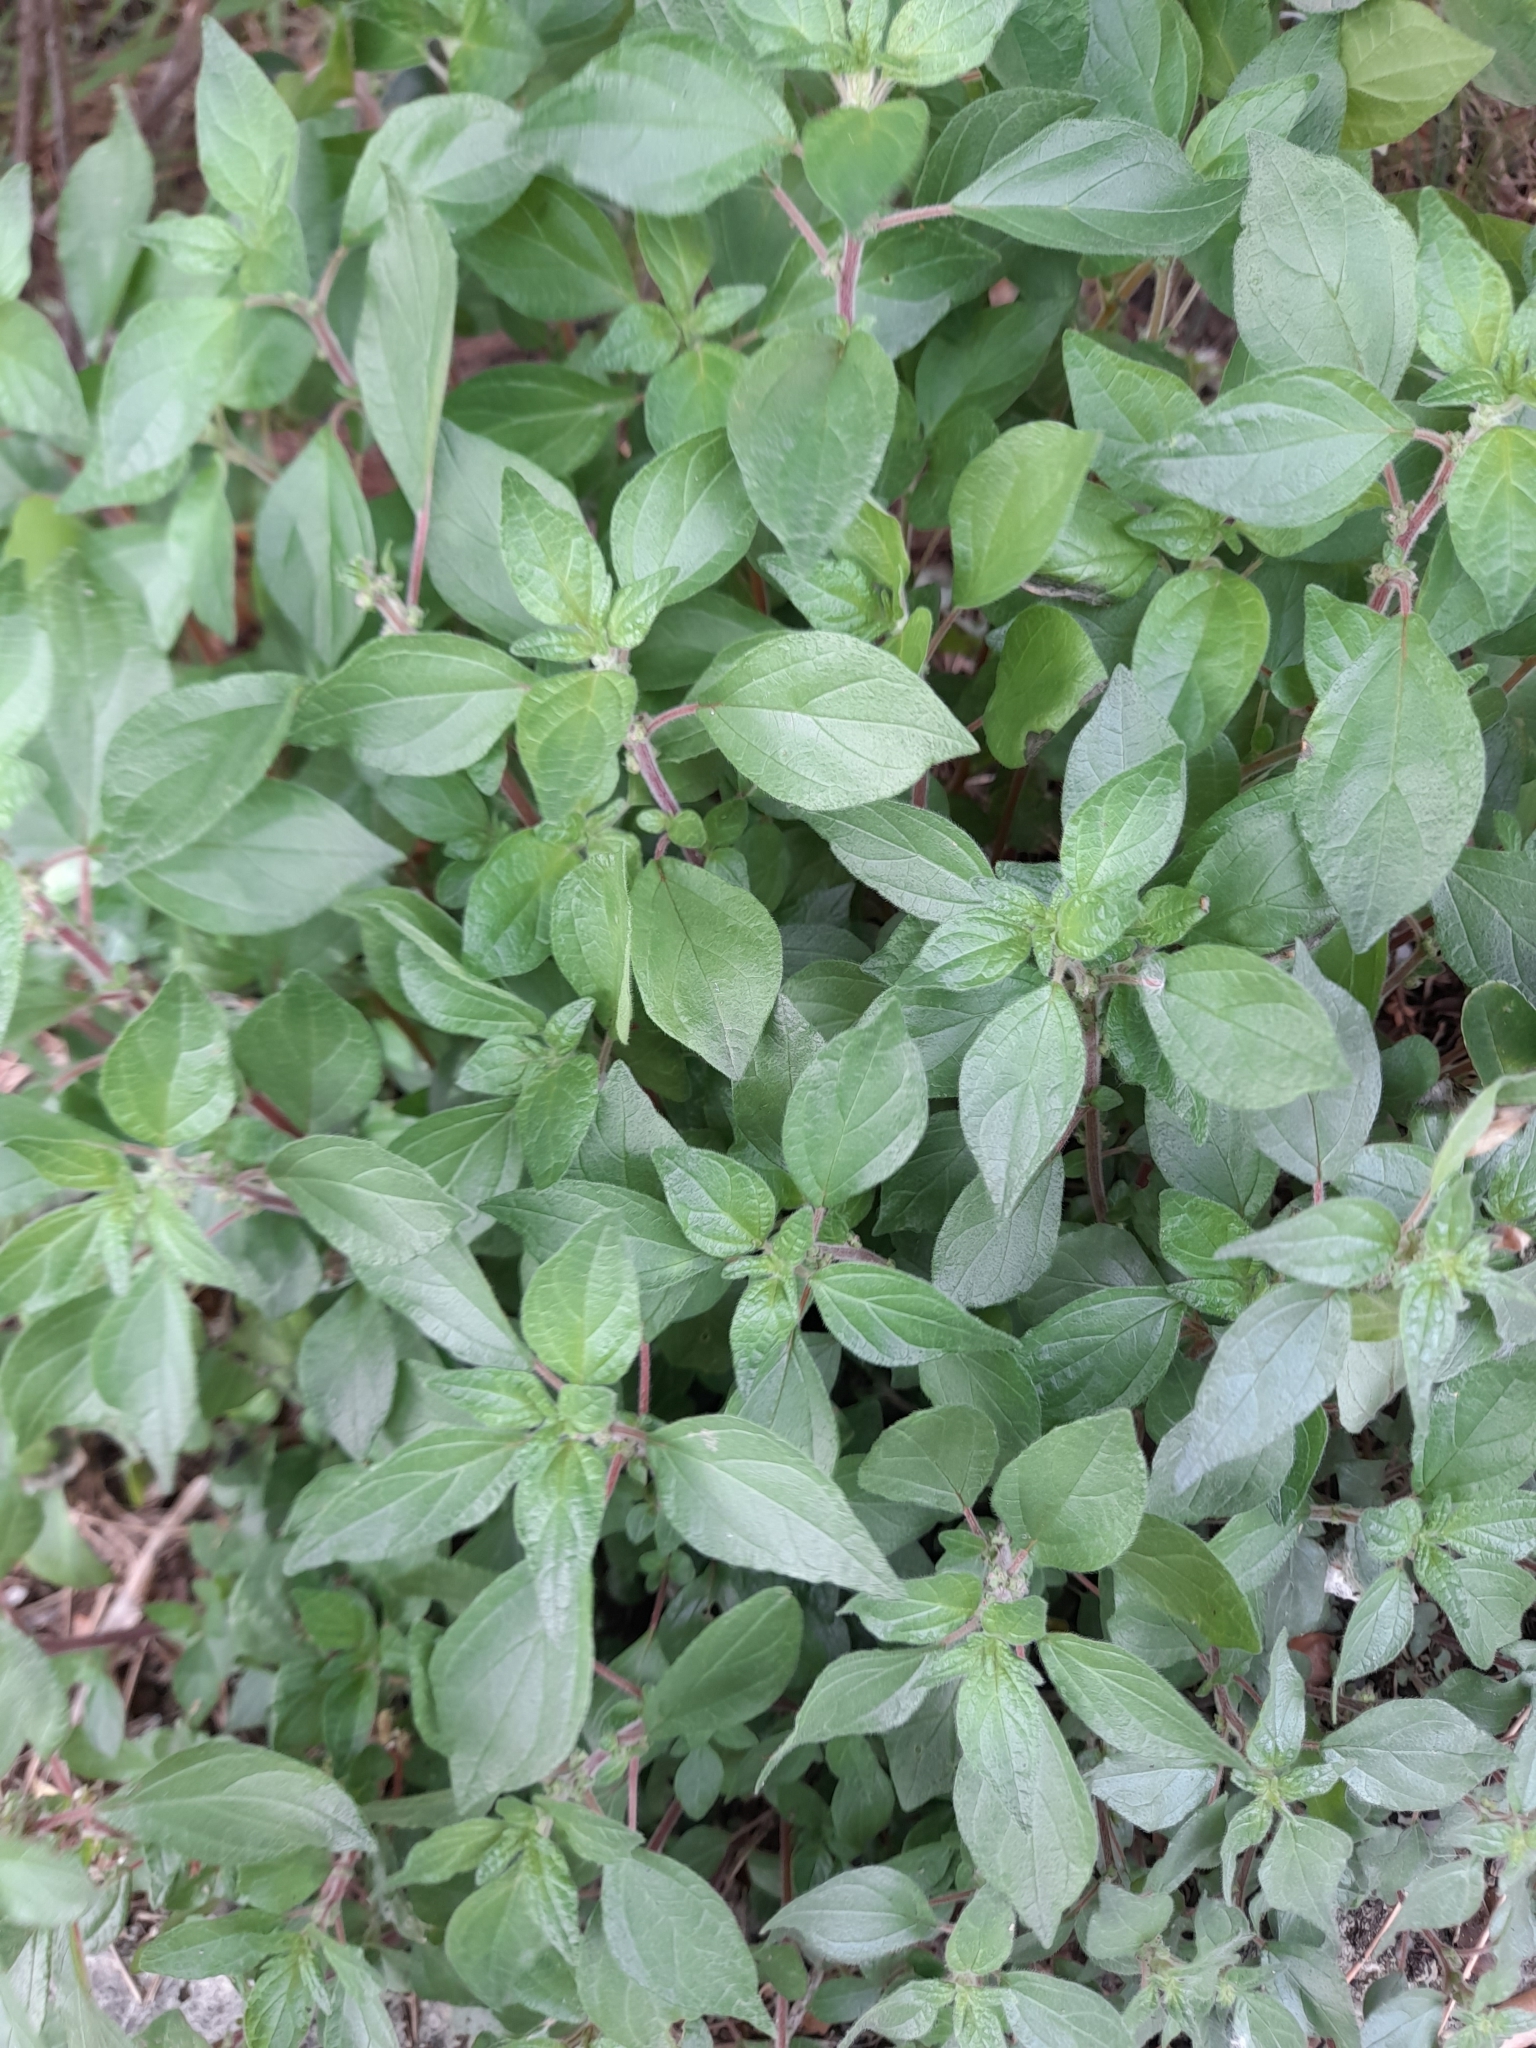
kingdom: Plantae
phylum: Tracheophyta
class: Magnoliopsida
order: Rosales
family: Urticaceae
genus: Parietaria
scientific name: Parietaria judaica
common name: Pellitory-of-the-wall
